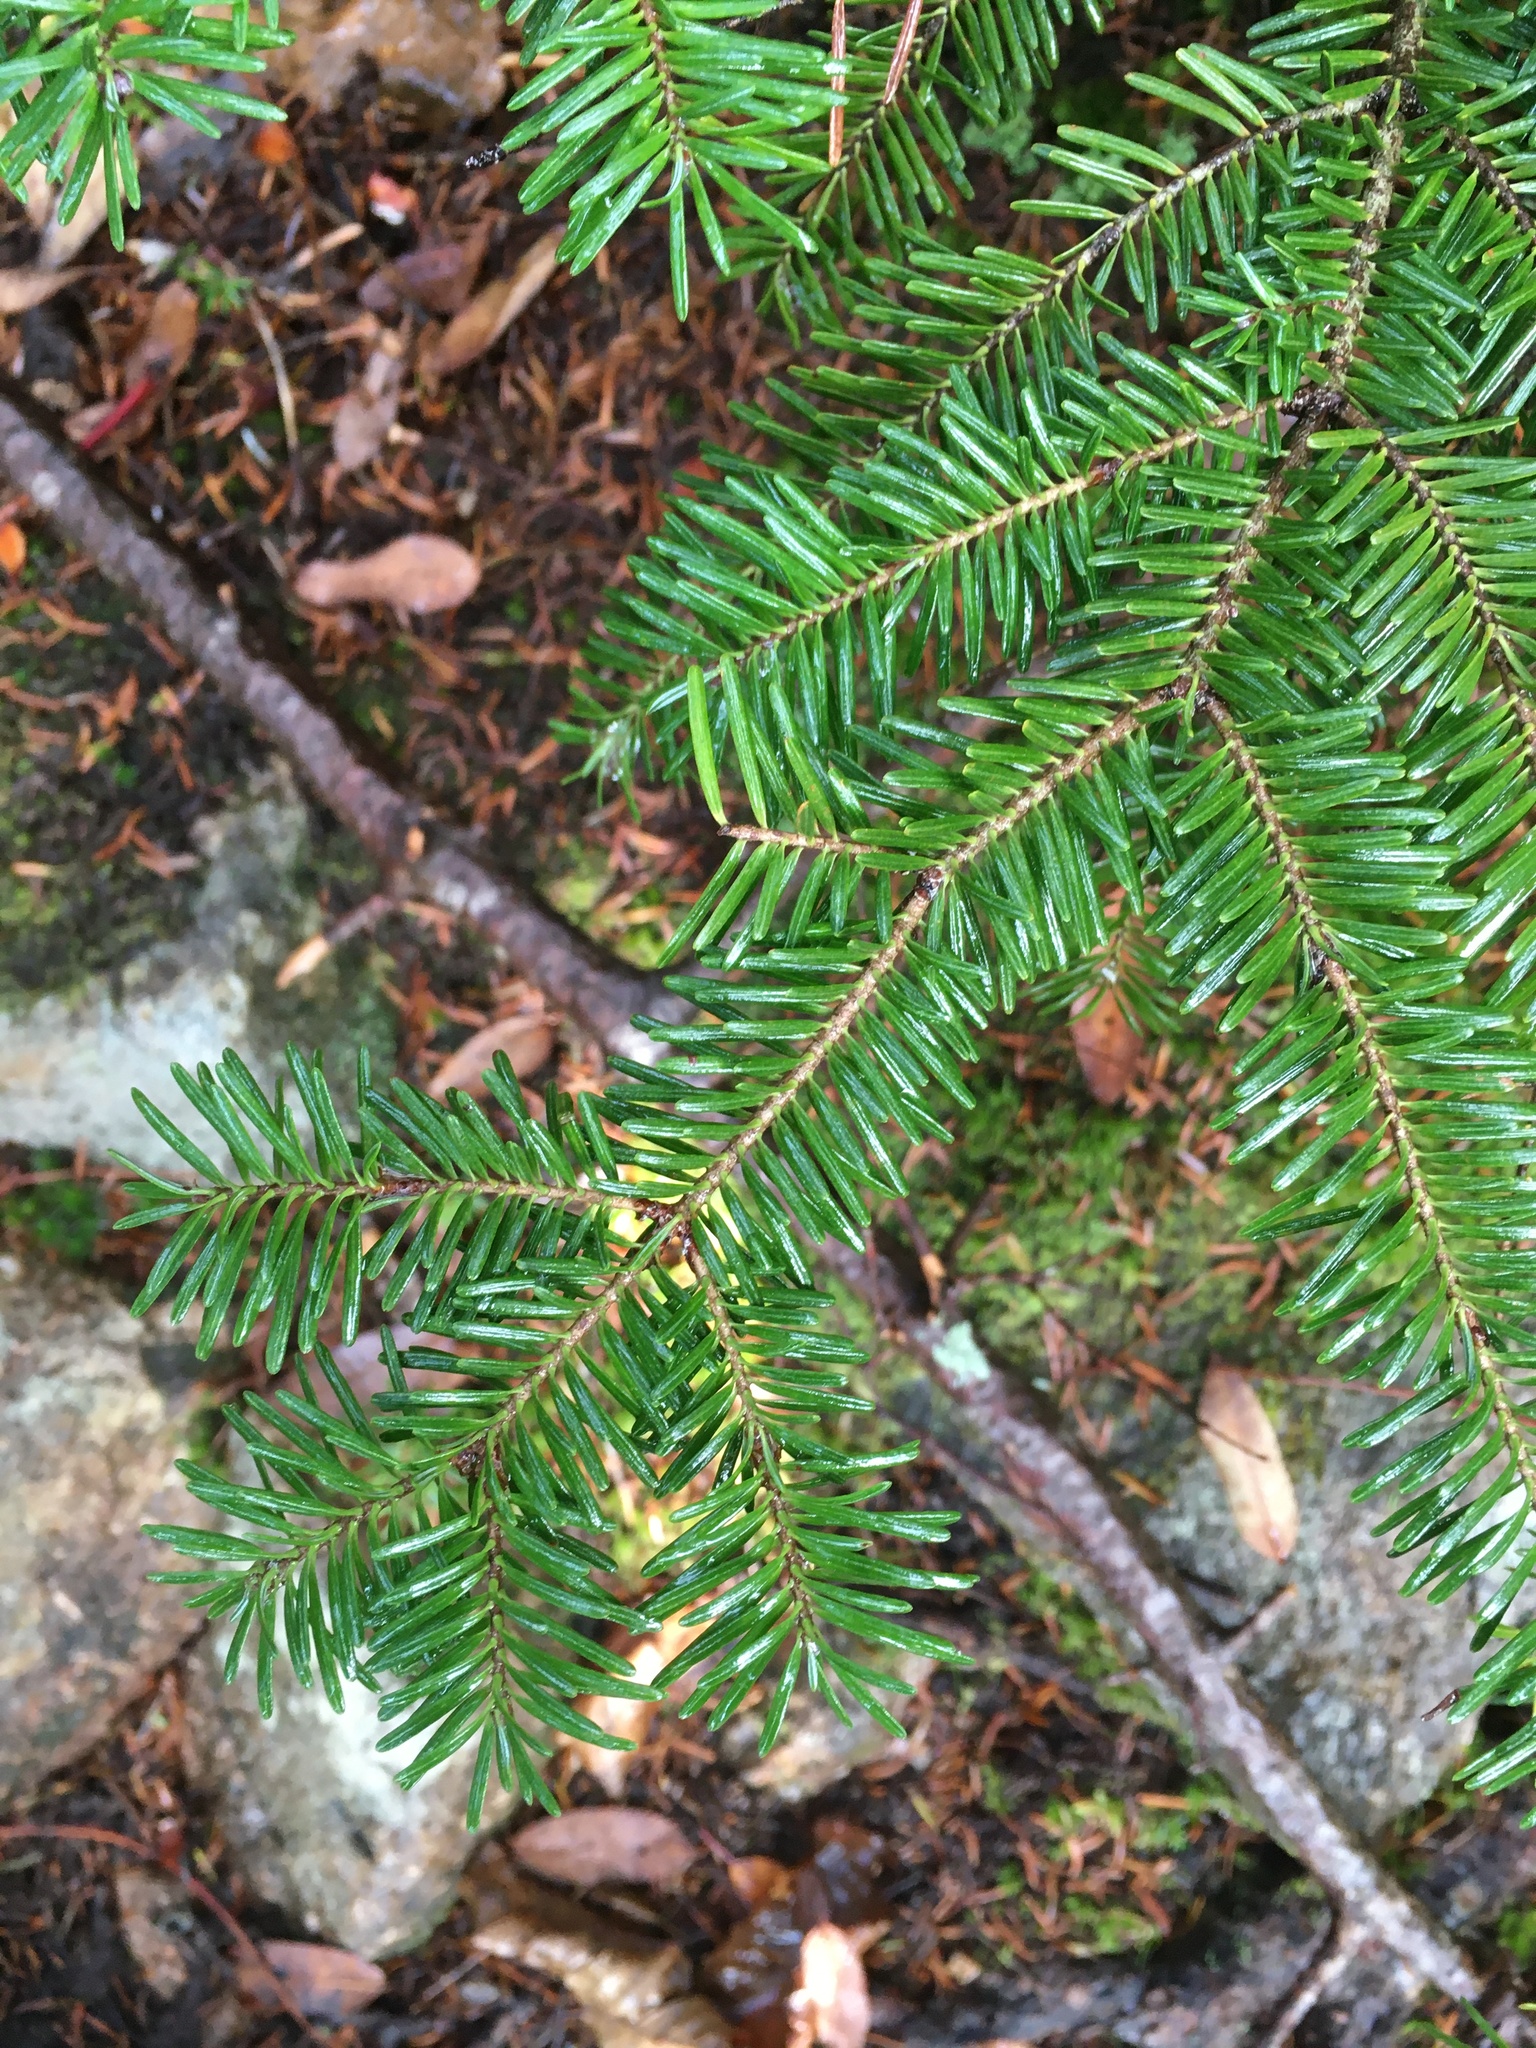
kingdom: Plantae
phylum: Tracheophyta
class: Pinopsida
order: Pinales
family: Pinaceae
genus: Abies
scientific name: Abies balsamea
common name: Balsam fir
